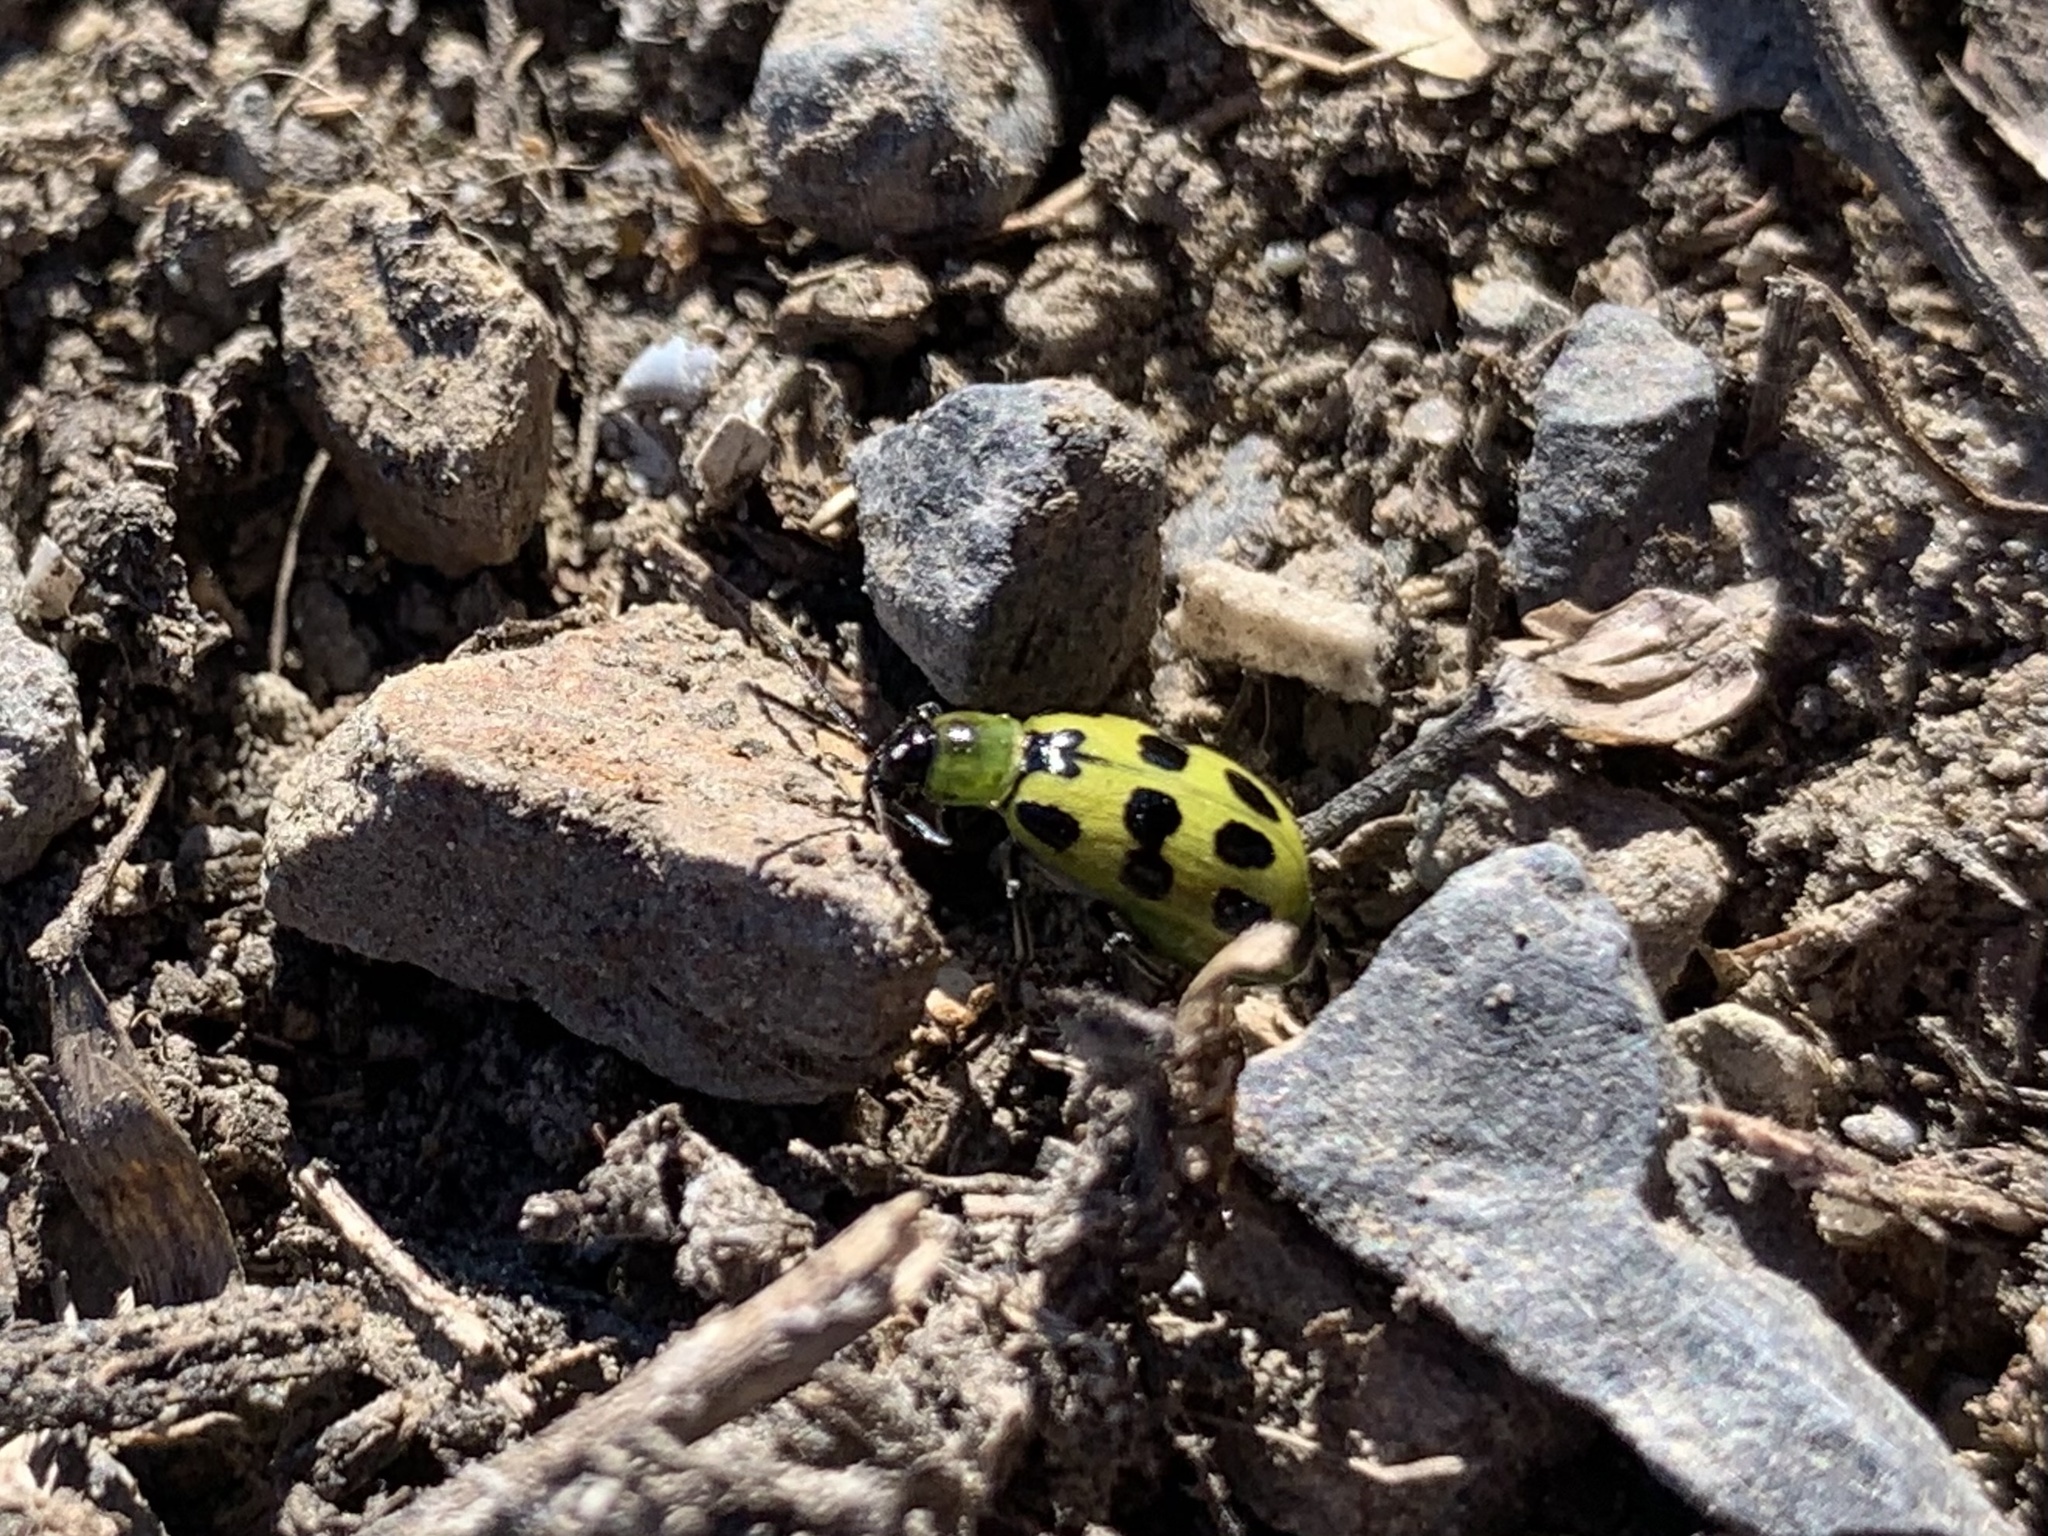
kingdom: Animalia
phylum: Arthropoda
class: Insecta
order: Coleoptera
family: Chrysomelidae
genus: Diabrotica
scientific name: Diabrotica undecimpunctata
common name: Spotted cucumber beetle
